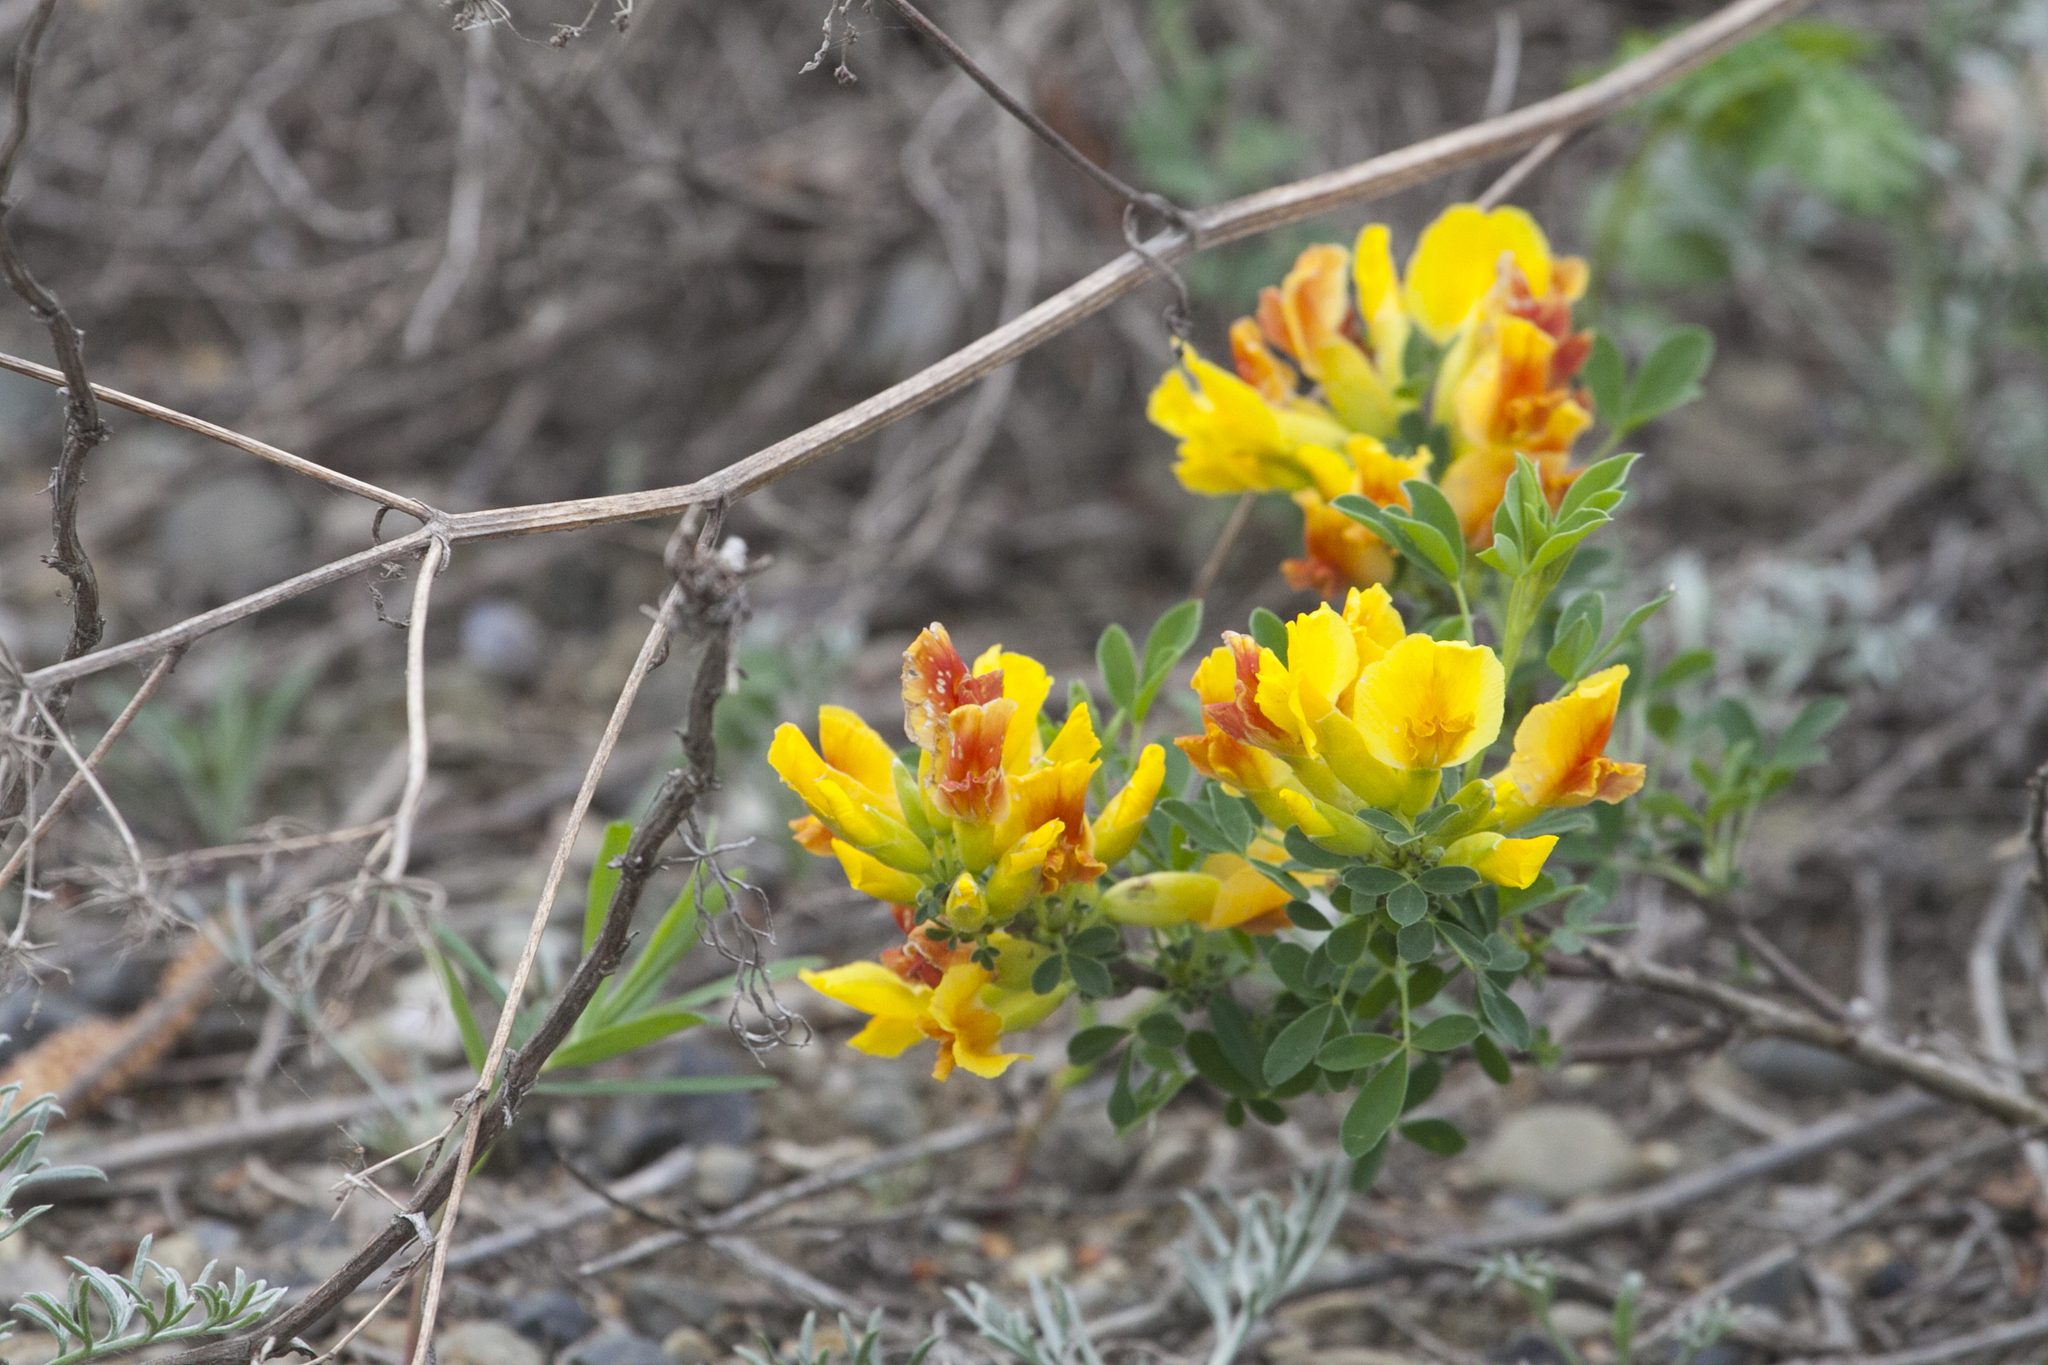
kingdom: Plantae
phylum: Tracheophyta
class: Magnoliopsida
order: Fabales
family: Fabaceae
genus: Chamaecytisus
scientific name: Chamaecytisus ruthenicus
